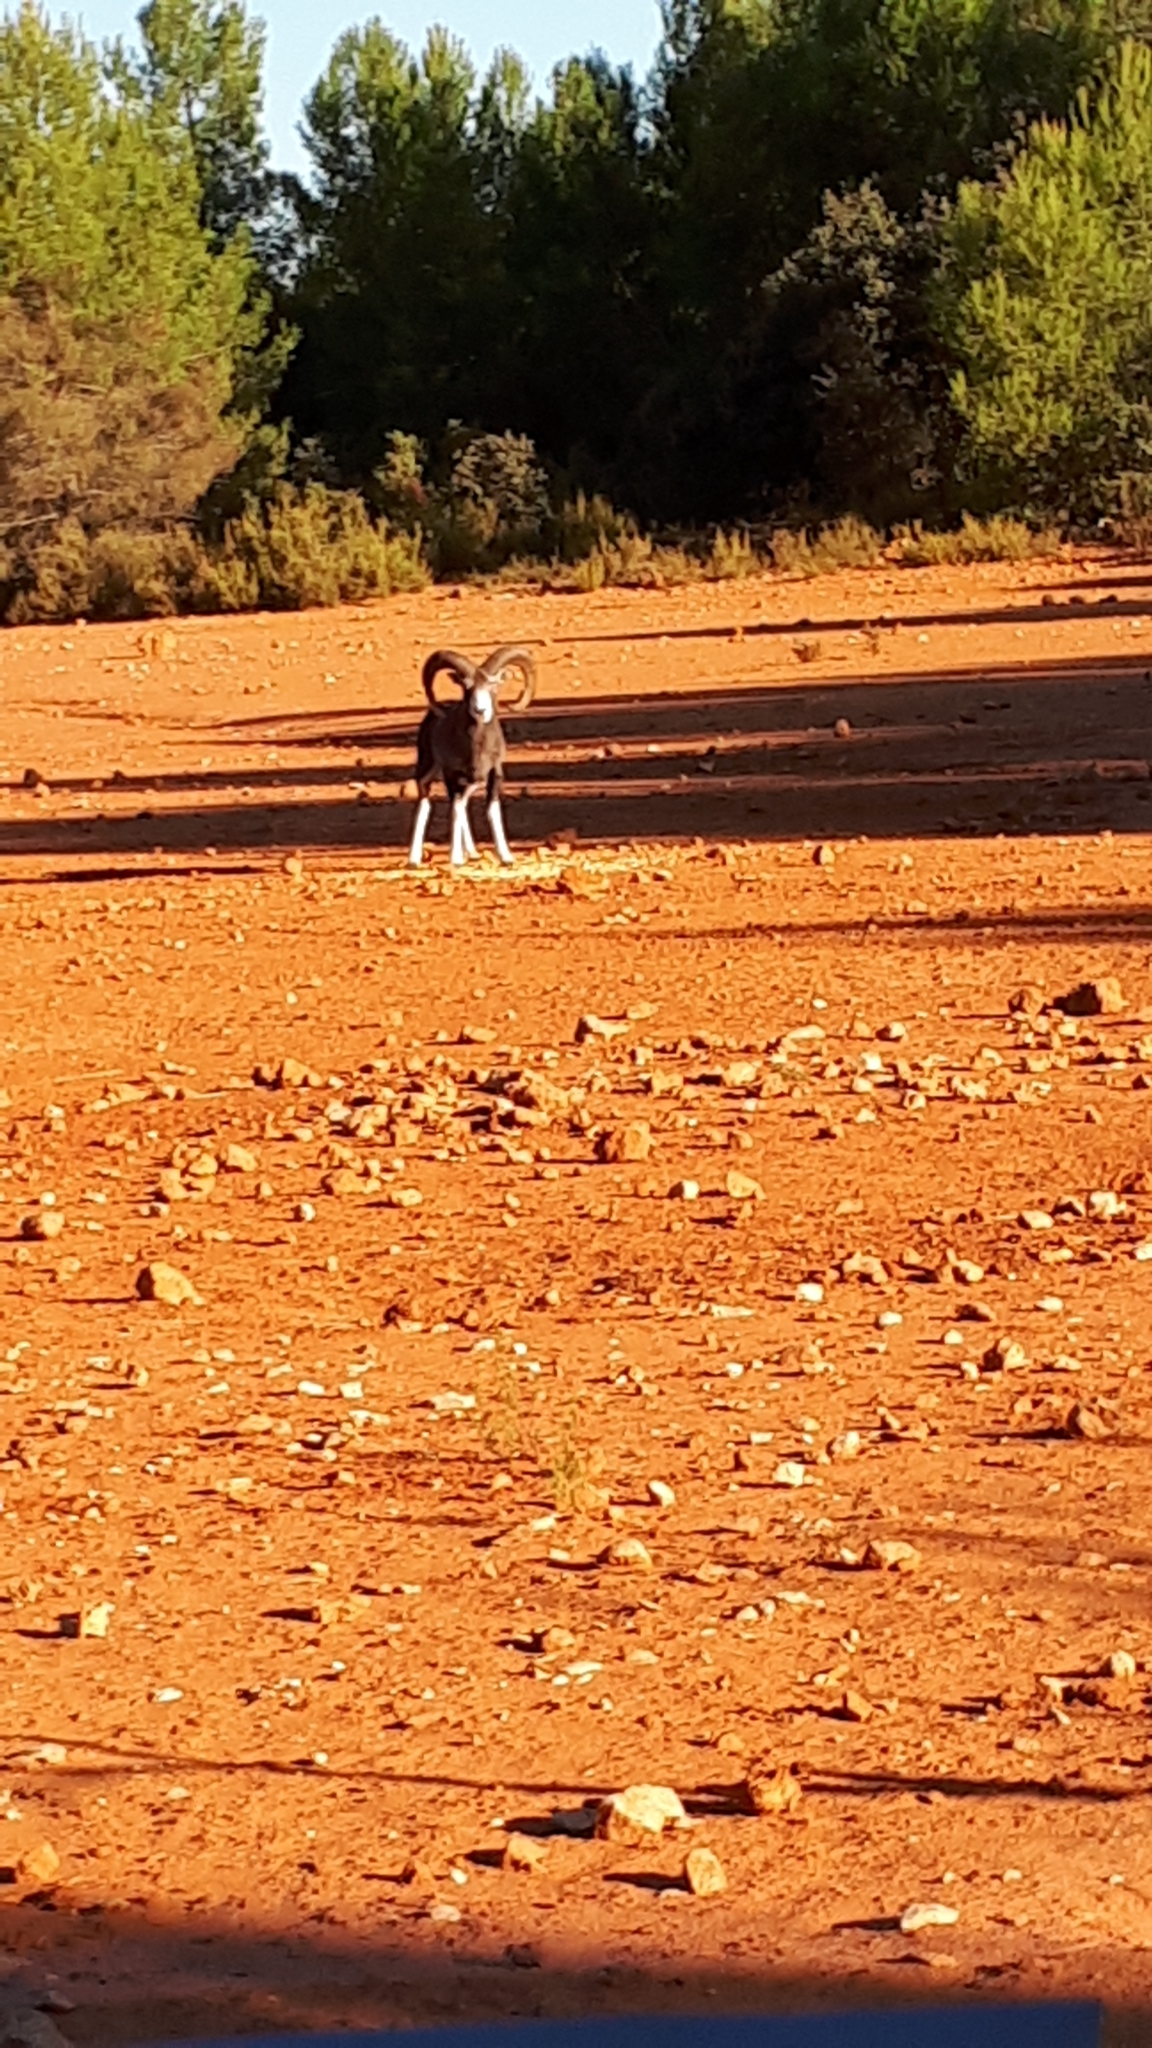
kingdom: Animalia
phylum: Chordata
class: Mammalia
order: Artiodactyla
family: Bovidae
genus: Ovis
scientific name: Ovis aries
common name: Domestic sheep
